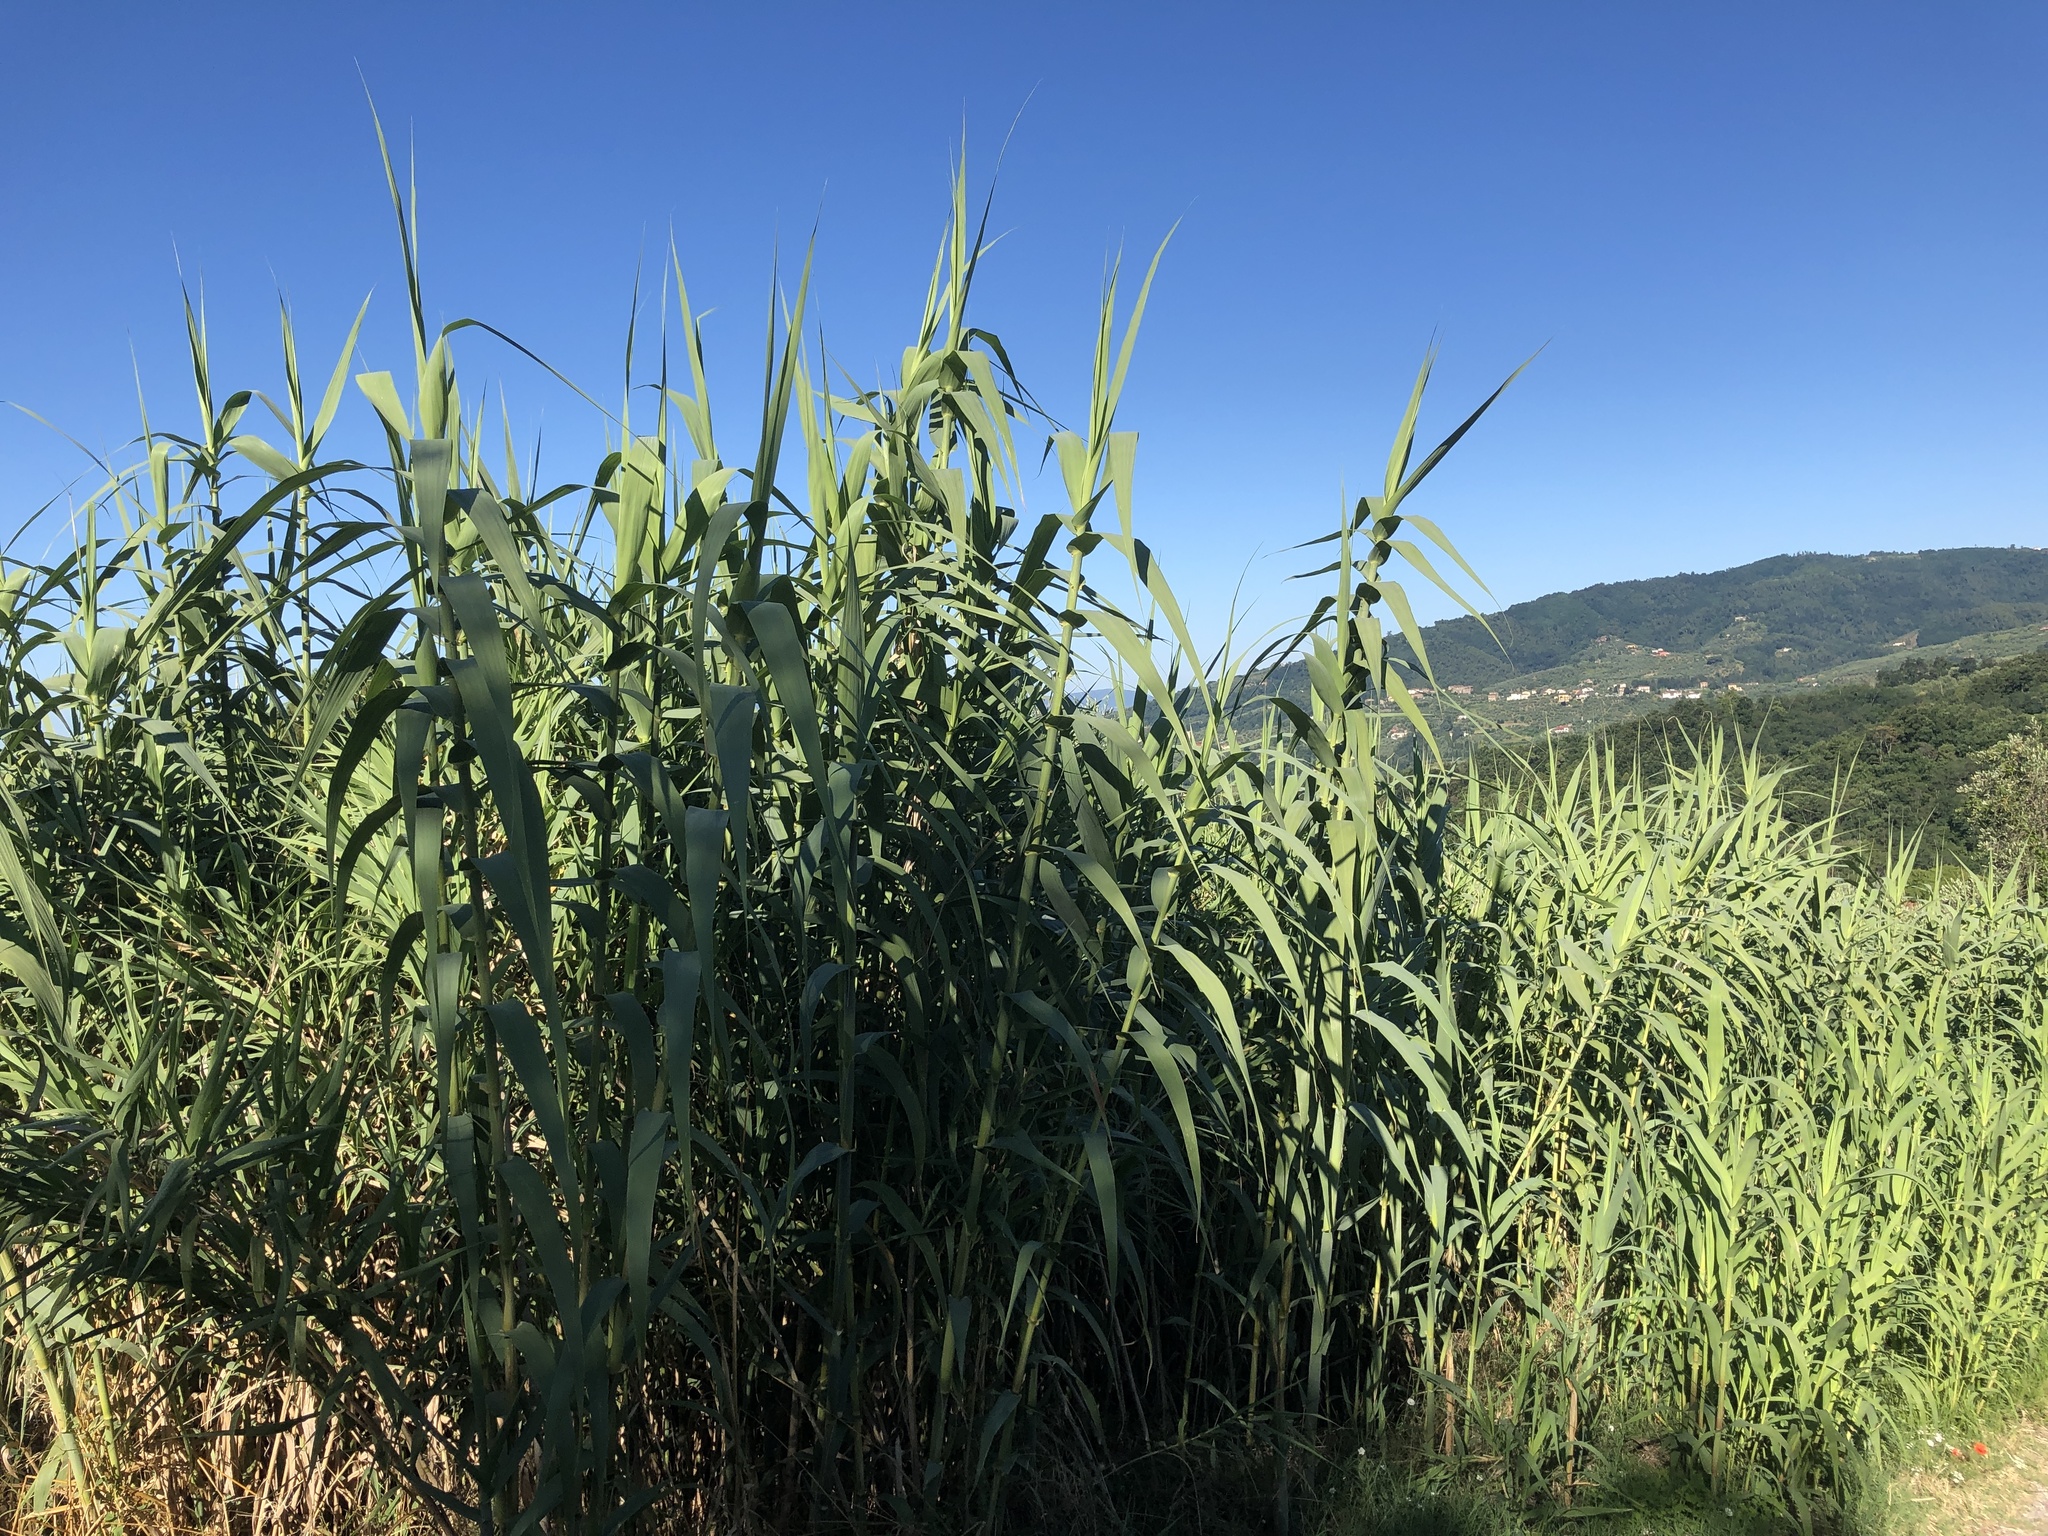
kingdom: Plantae
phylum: Tracheophyta
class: Liliopsida
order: Poales
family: Poaceae
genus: Arundo
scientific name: Arundo donax
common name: Giant reed
